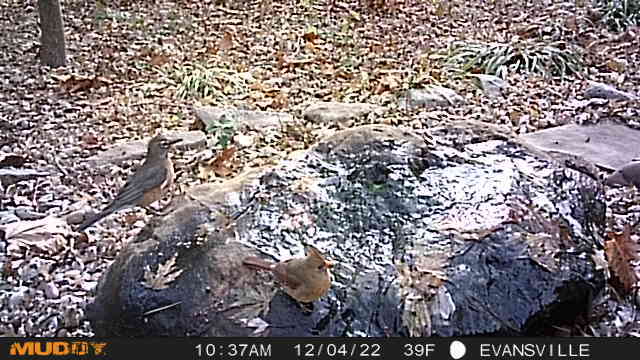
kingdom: Animalia
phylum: Chordata
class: Aves
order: Passeriformes
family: Turdidae
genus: Turdus
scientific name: Turdus migratorius
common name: American robin
